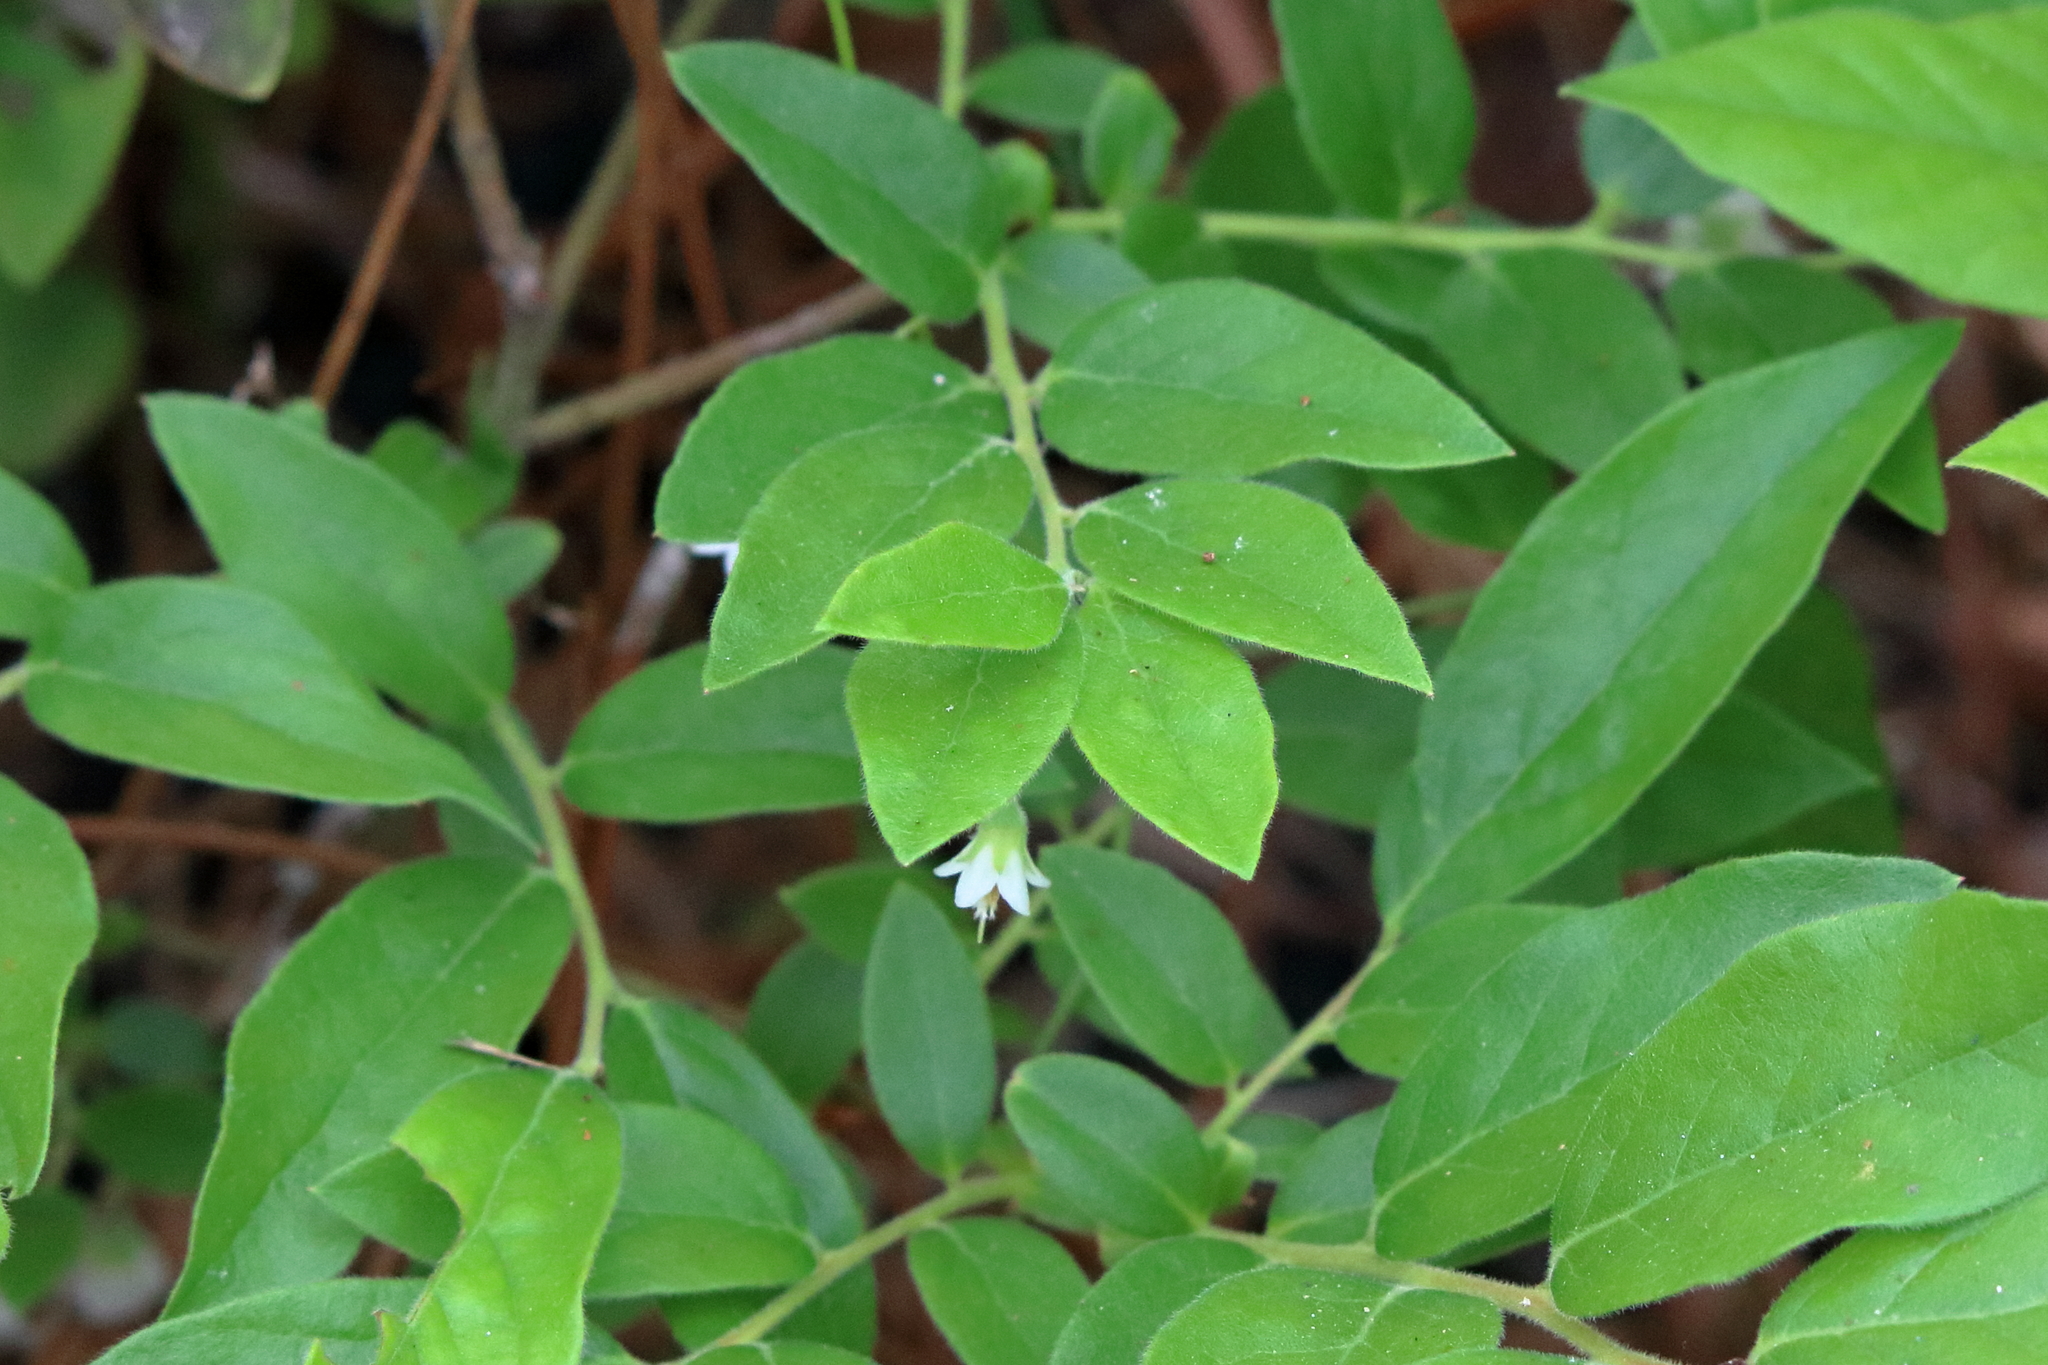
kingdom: Plantae
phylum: Tracheophyta
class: Magnoliopsida
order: Ericales
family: Ericaceae
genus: Vaccinium
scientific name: Vaccinium stamineum
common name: Deerberry
